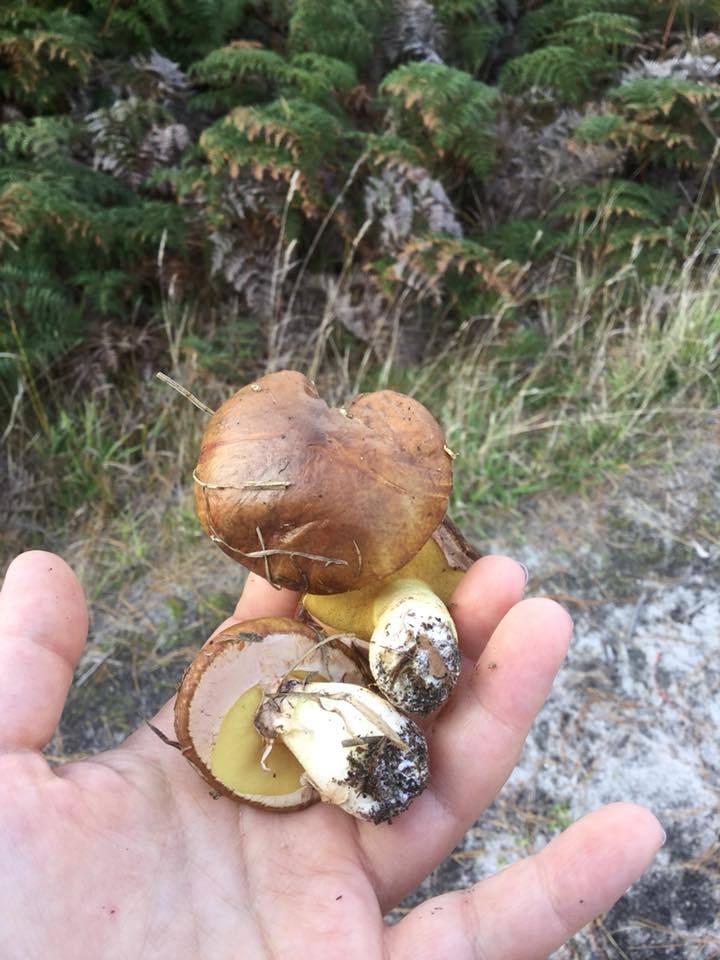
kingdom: Fungi
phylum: Basidiomycota
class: Agaricomycetes
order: Boletales
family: Suillaceae
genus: Suillus
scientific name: Suillus luteus
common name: Slippery jack
